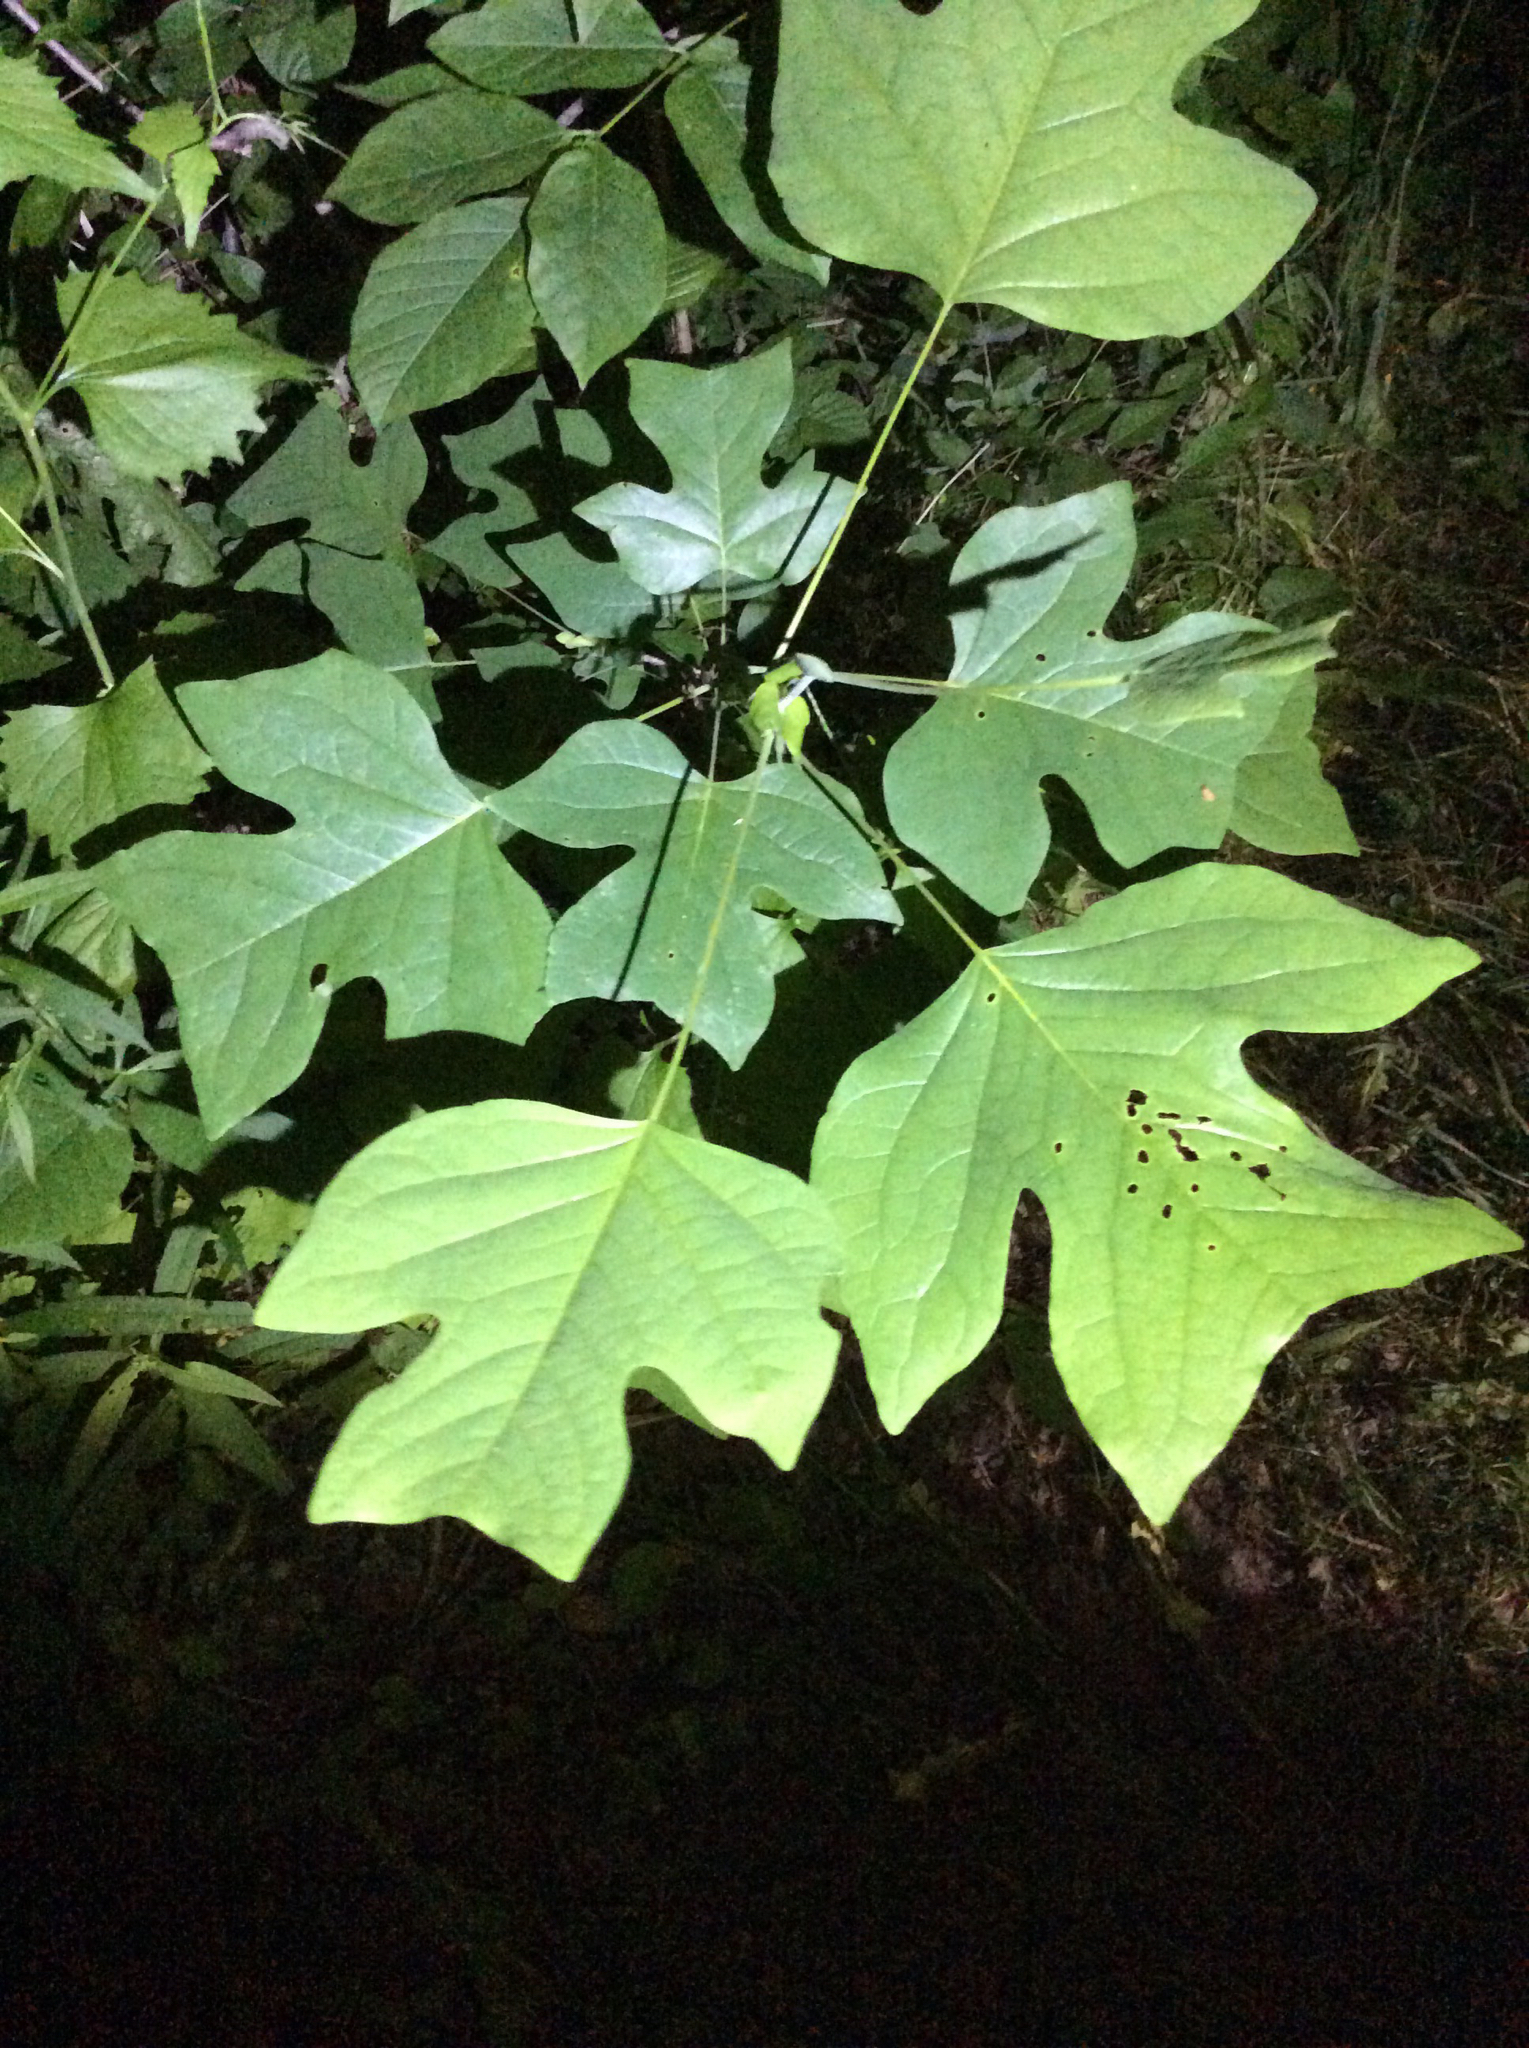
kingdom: Plantae
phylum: Tracheophyta
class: Magnoliopsida
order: Magnoliales
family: Magnoliaceae
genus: Liriodendron
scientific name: Liriodendron tulipifera
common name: Tulip tree
